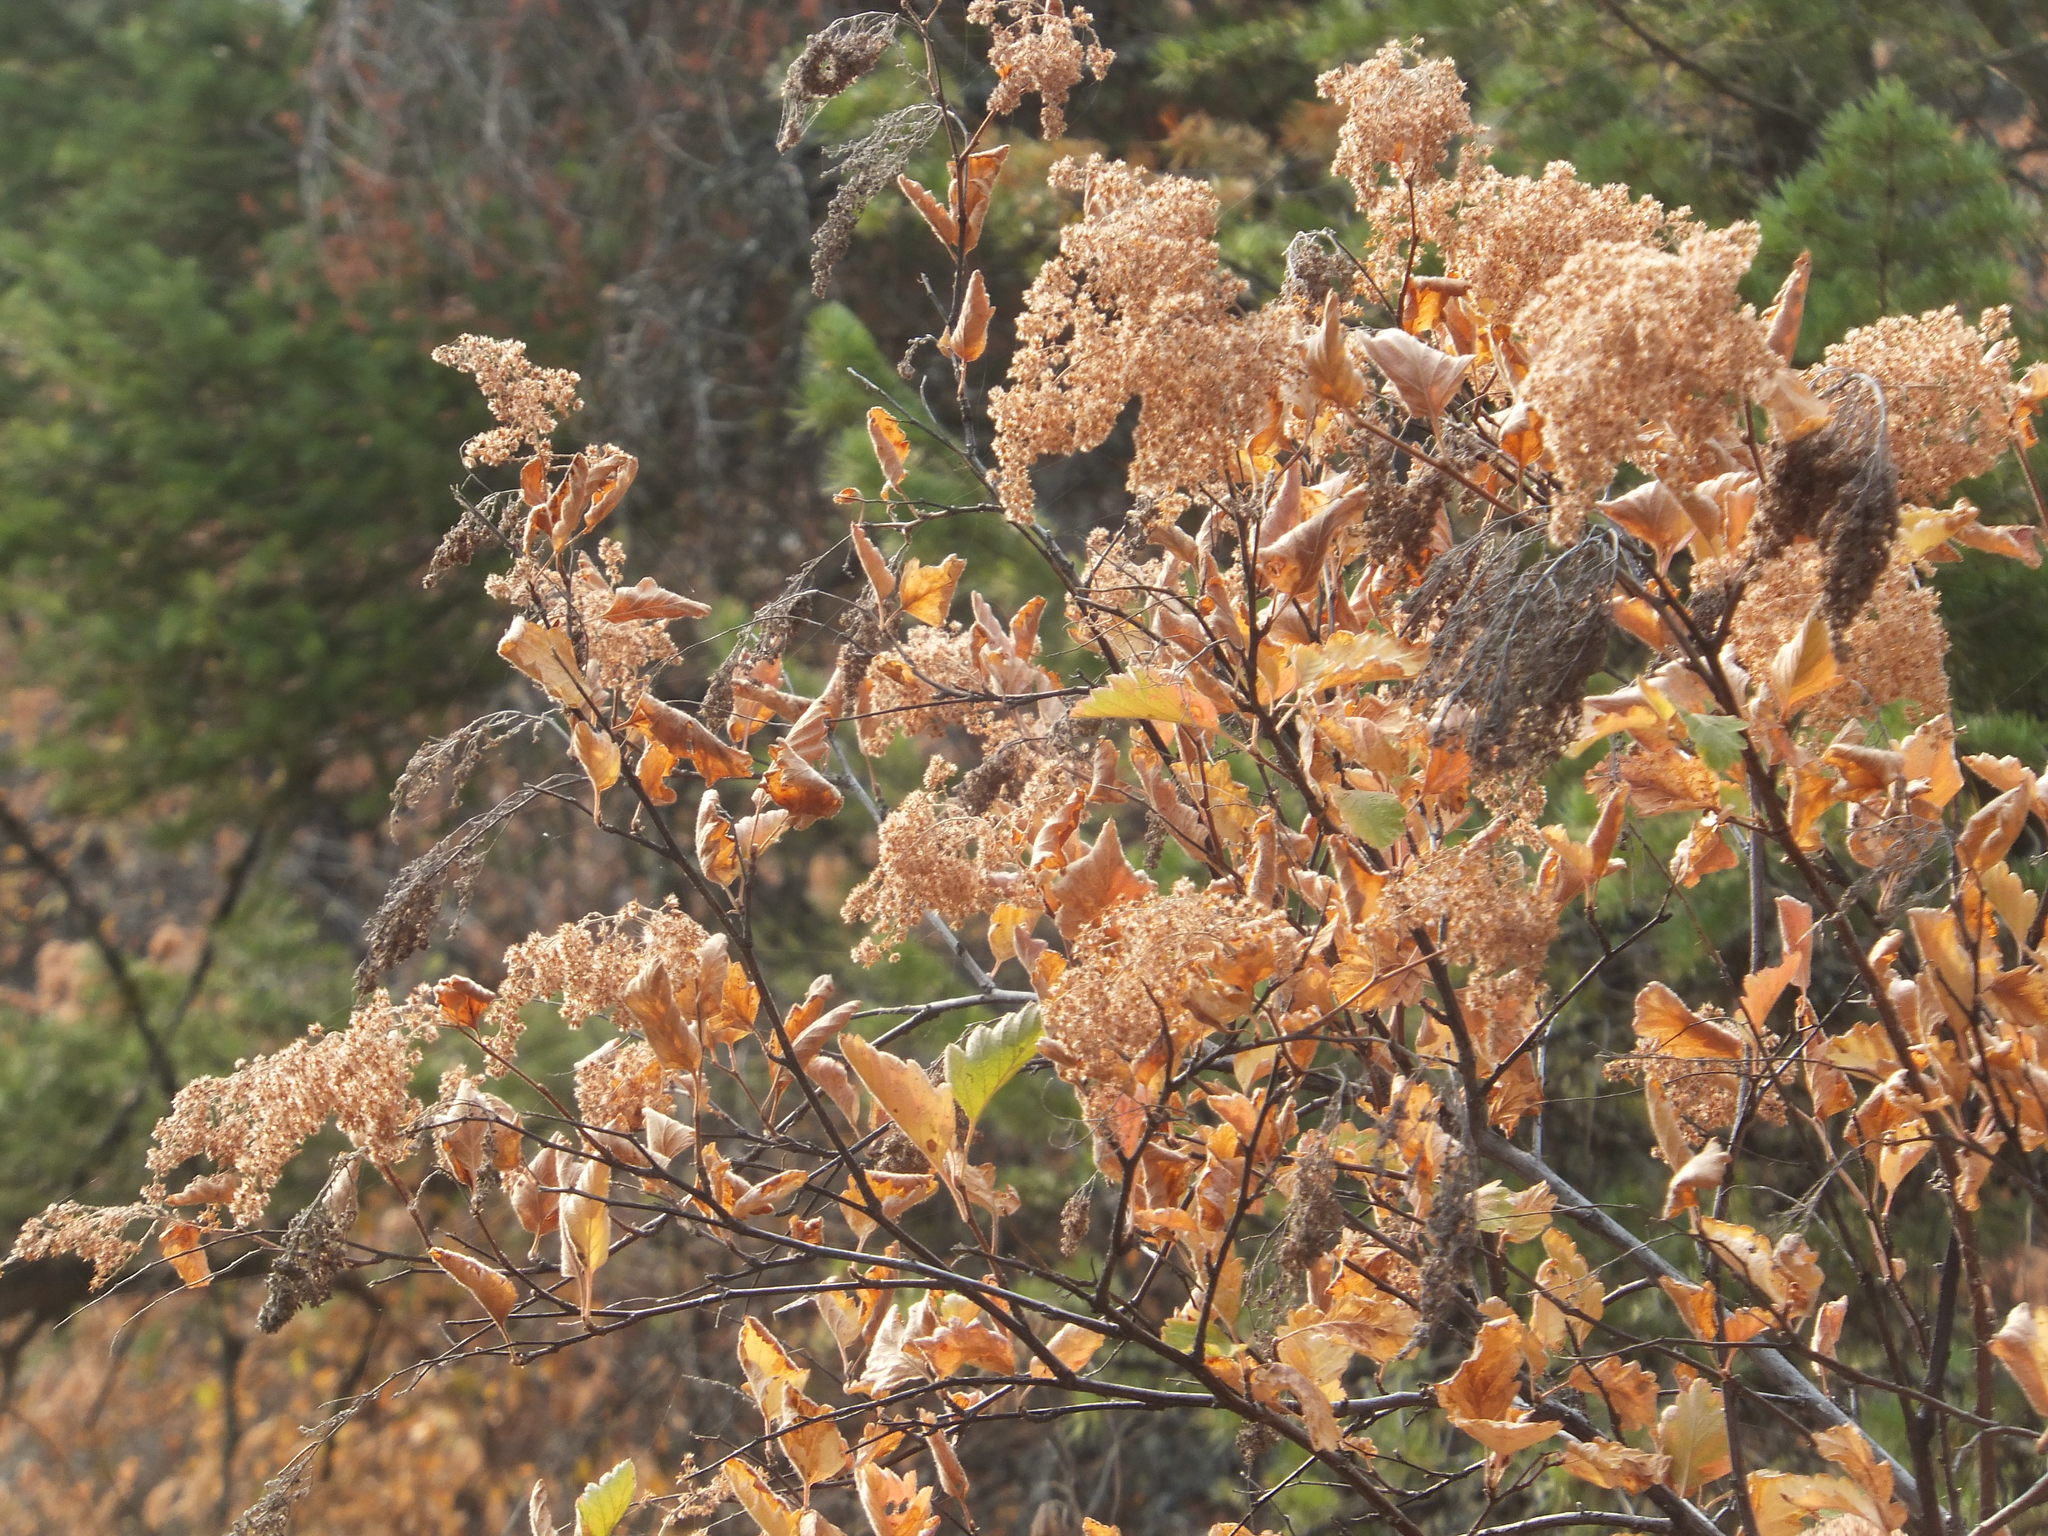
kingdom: Plantae
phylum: Tracheophyta
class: Magnoliopsida
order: Rosales
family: Rosaceae
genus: Holodiscus
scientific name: Holodiscus discolor
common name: Oceanspray
